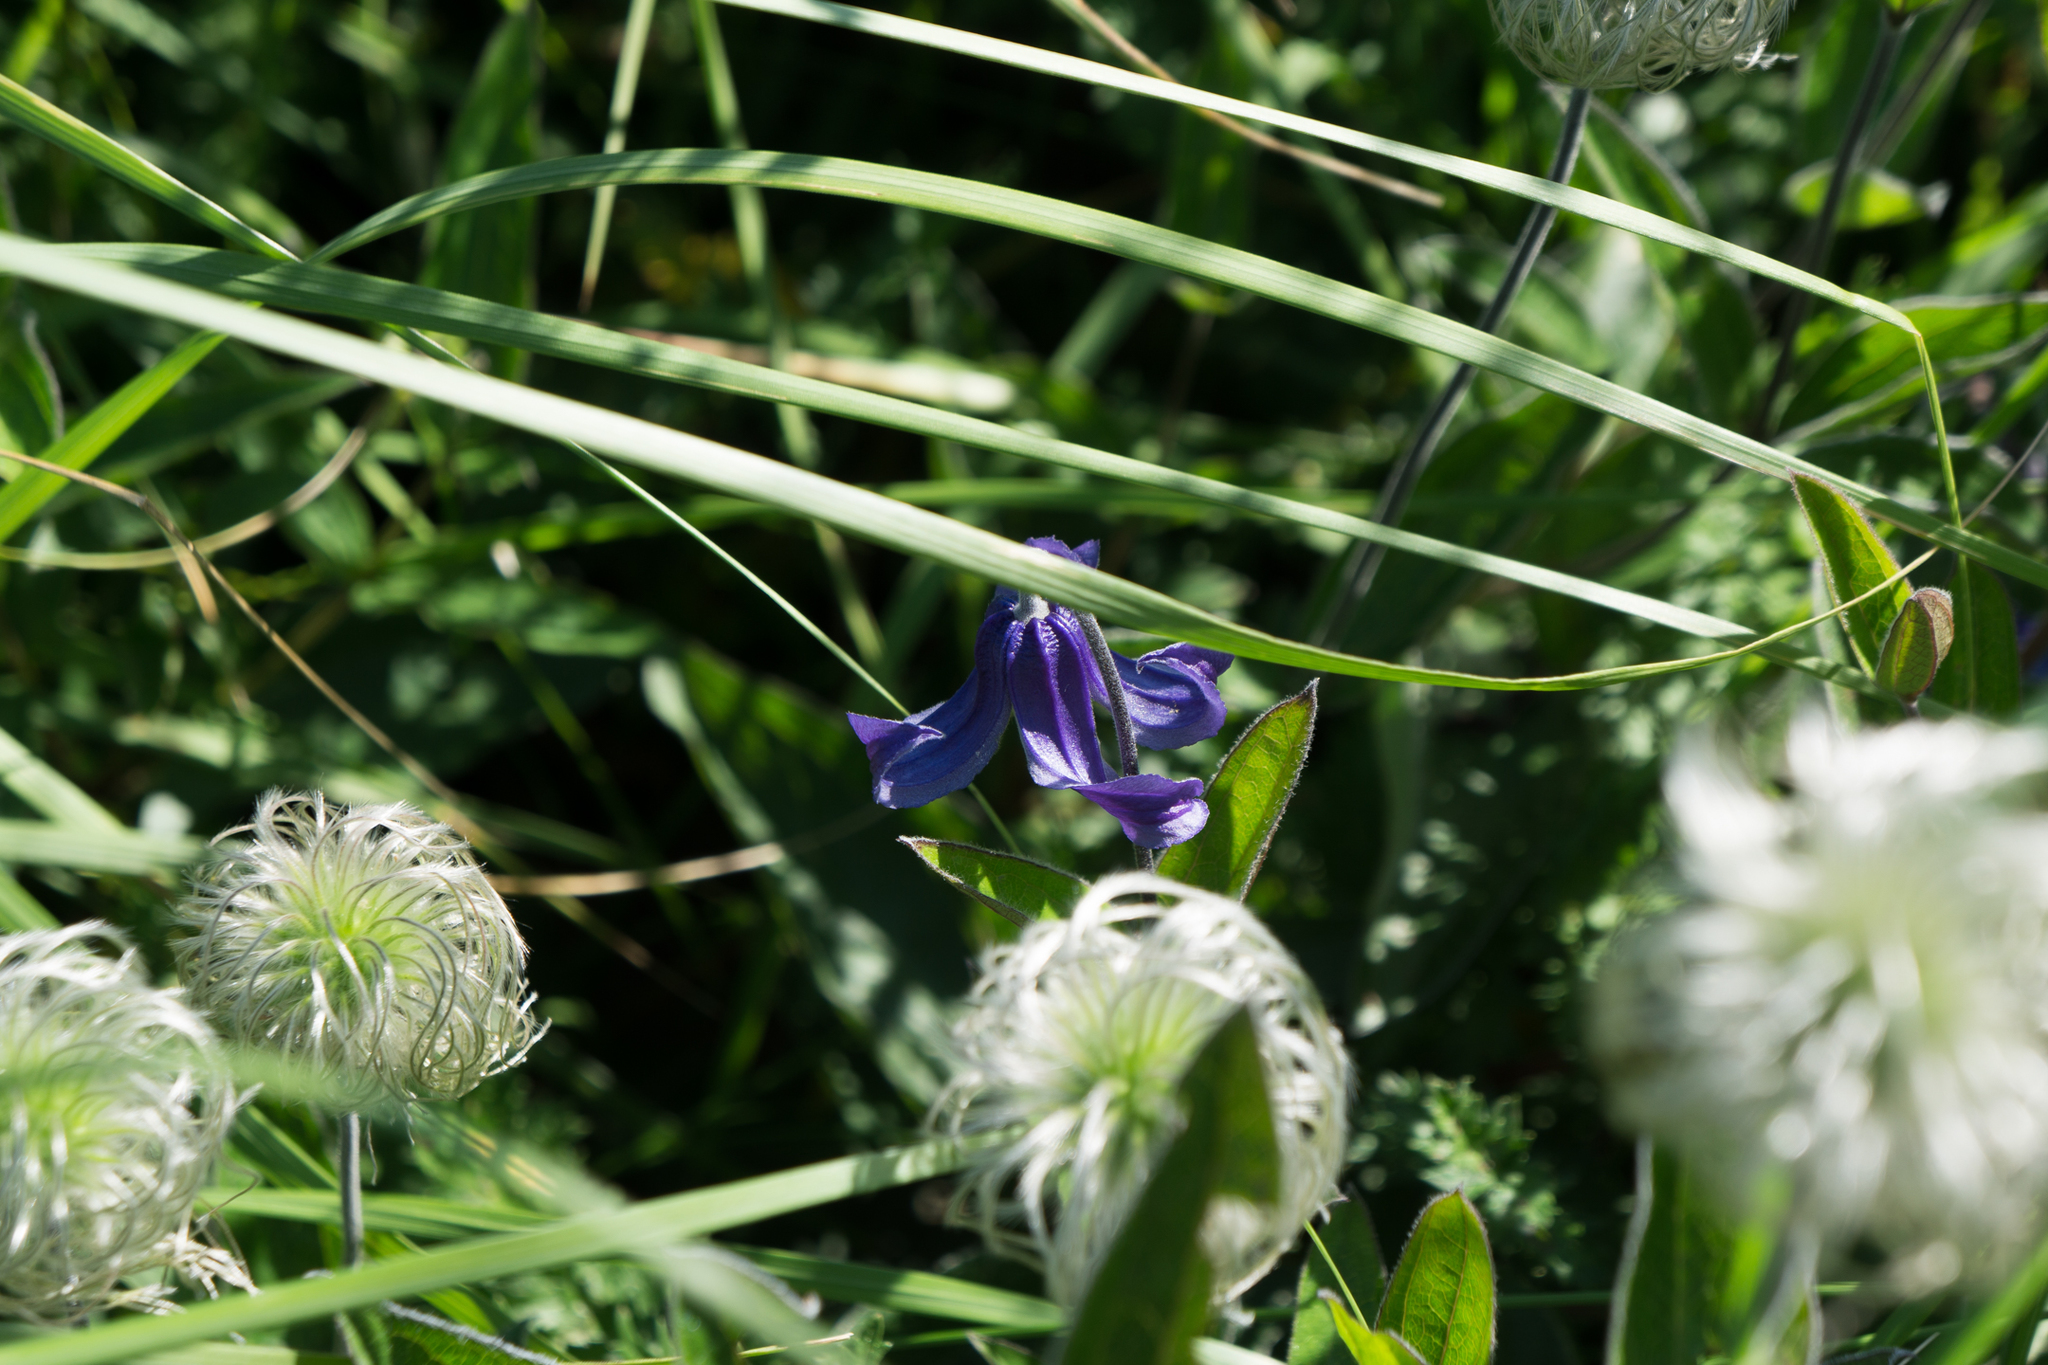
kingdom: Plantae
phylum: Tracheophyta
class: Magnoliopsida
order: Ranunculales
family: Ranunculaceae
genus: Clematis
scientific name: Clematis integrifolia
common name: Solitary clematis
